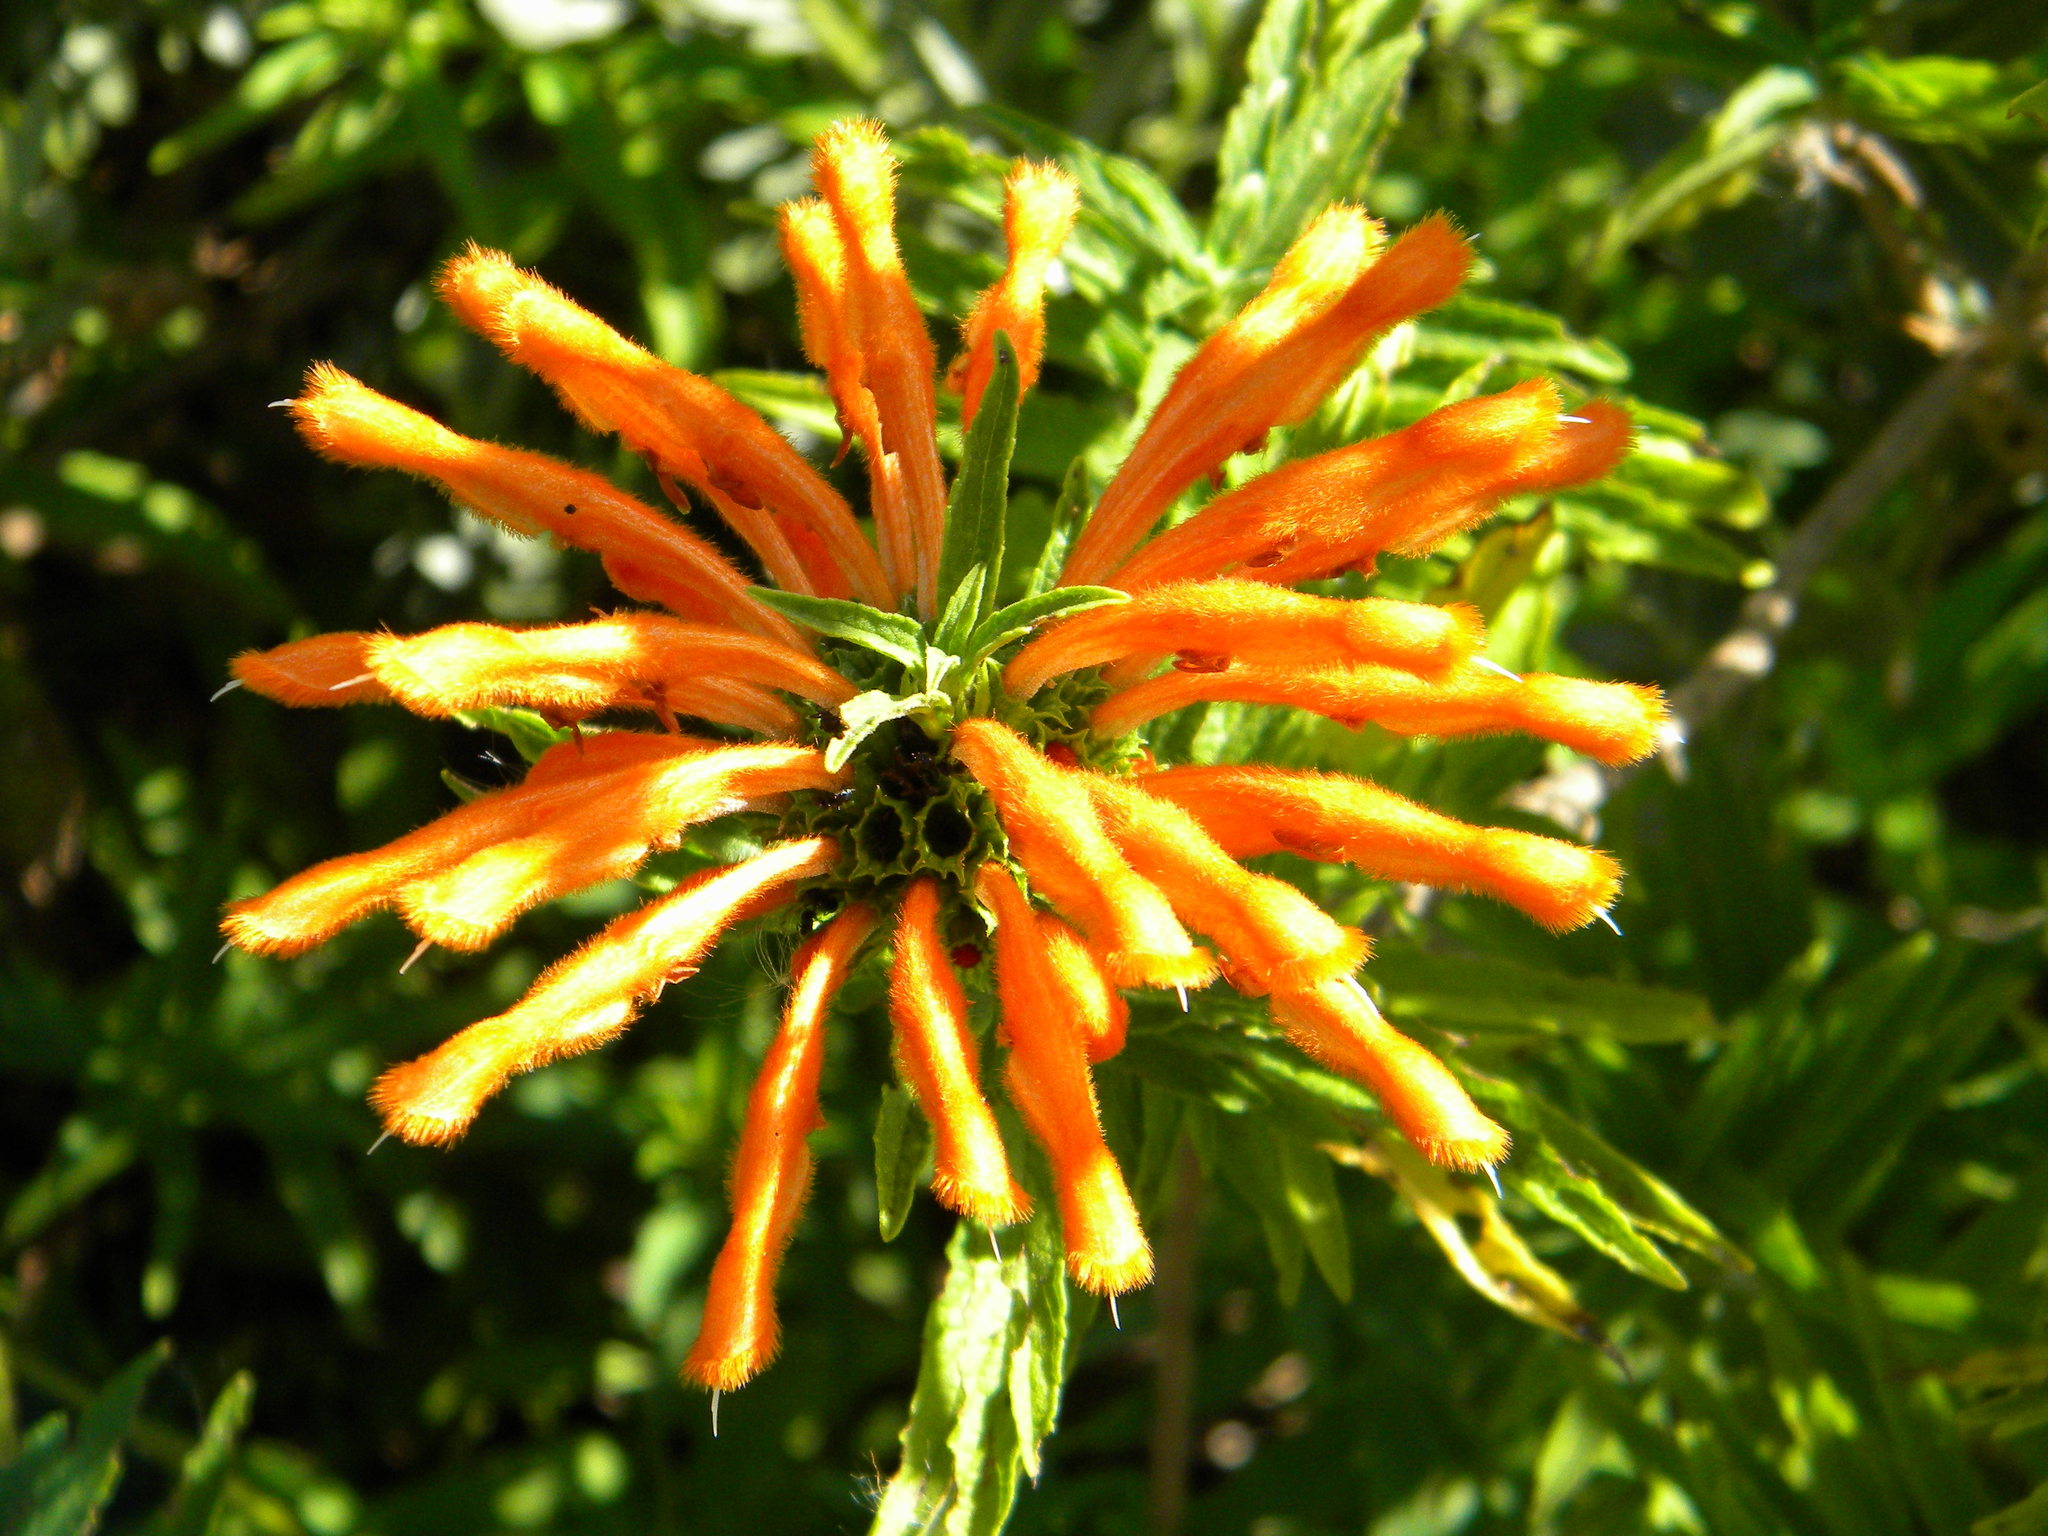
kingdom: Plantae
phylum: Tracheophyta
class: Magnoliopsida
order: Lamiales
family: Lamiaceae
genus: Leonotis
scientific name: Leonotis leonurus
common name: Lion's ear
